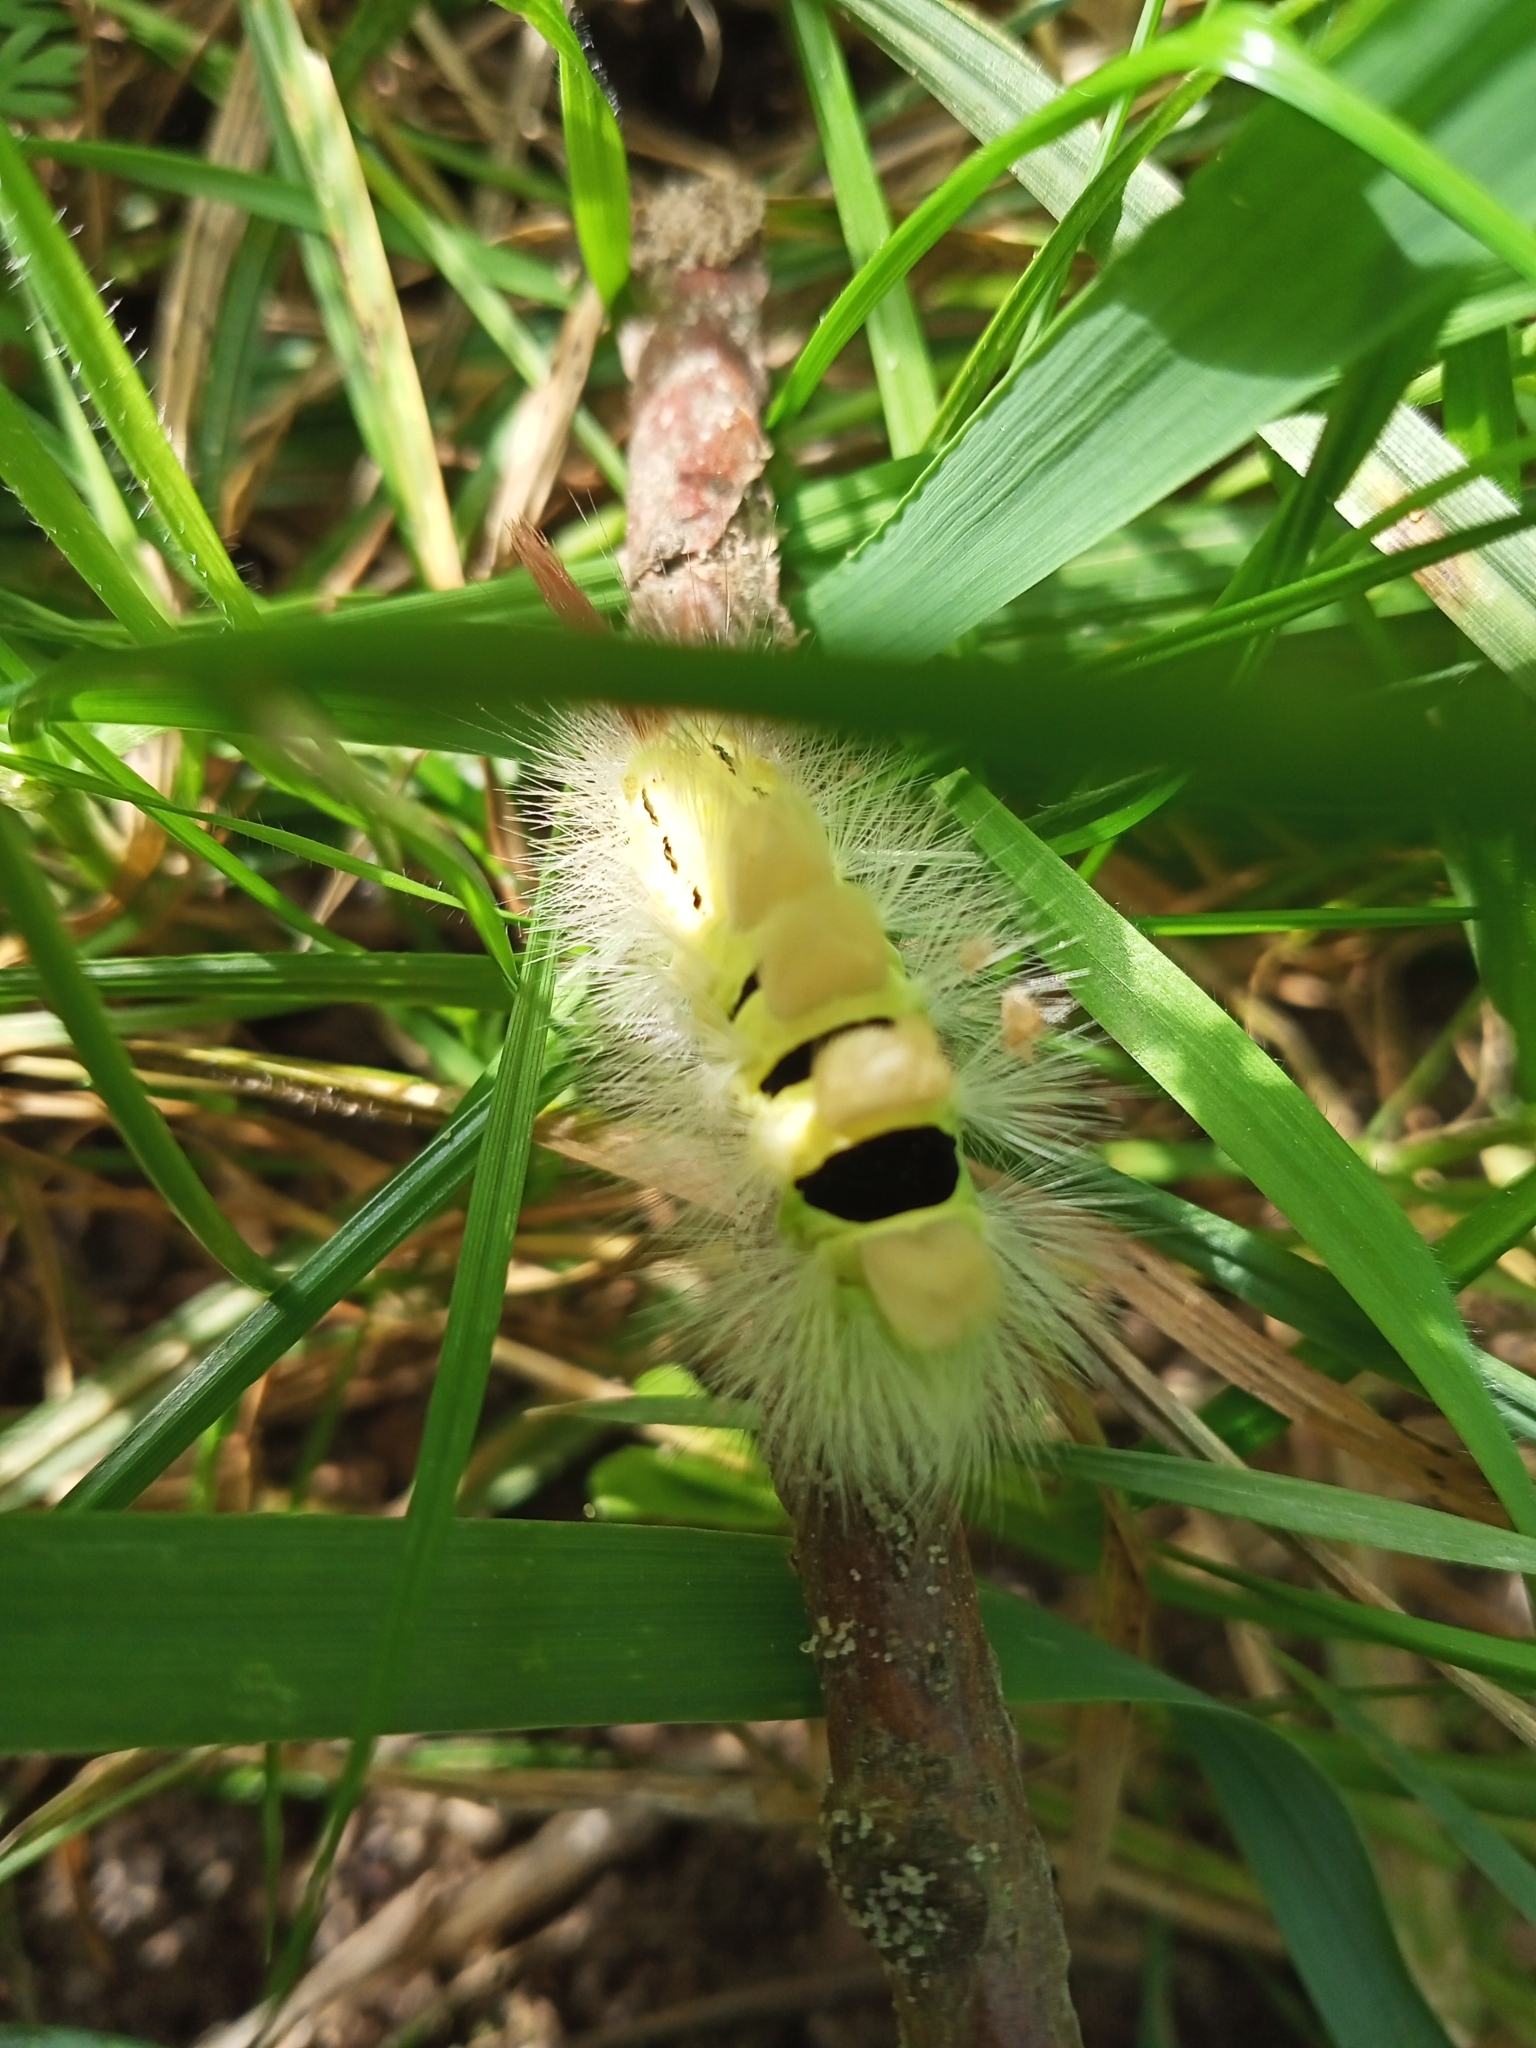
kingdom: Animalia
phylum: Arthropoda
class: Insecta
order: Lepidoptera
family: Erebidae
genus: Calliteara
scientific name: Calliteara pudibunda
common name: Pale tussock
